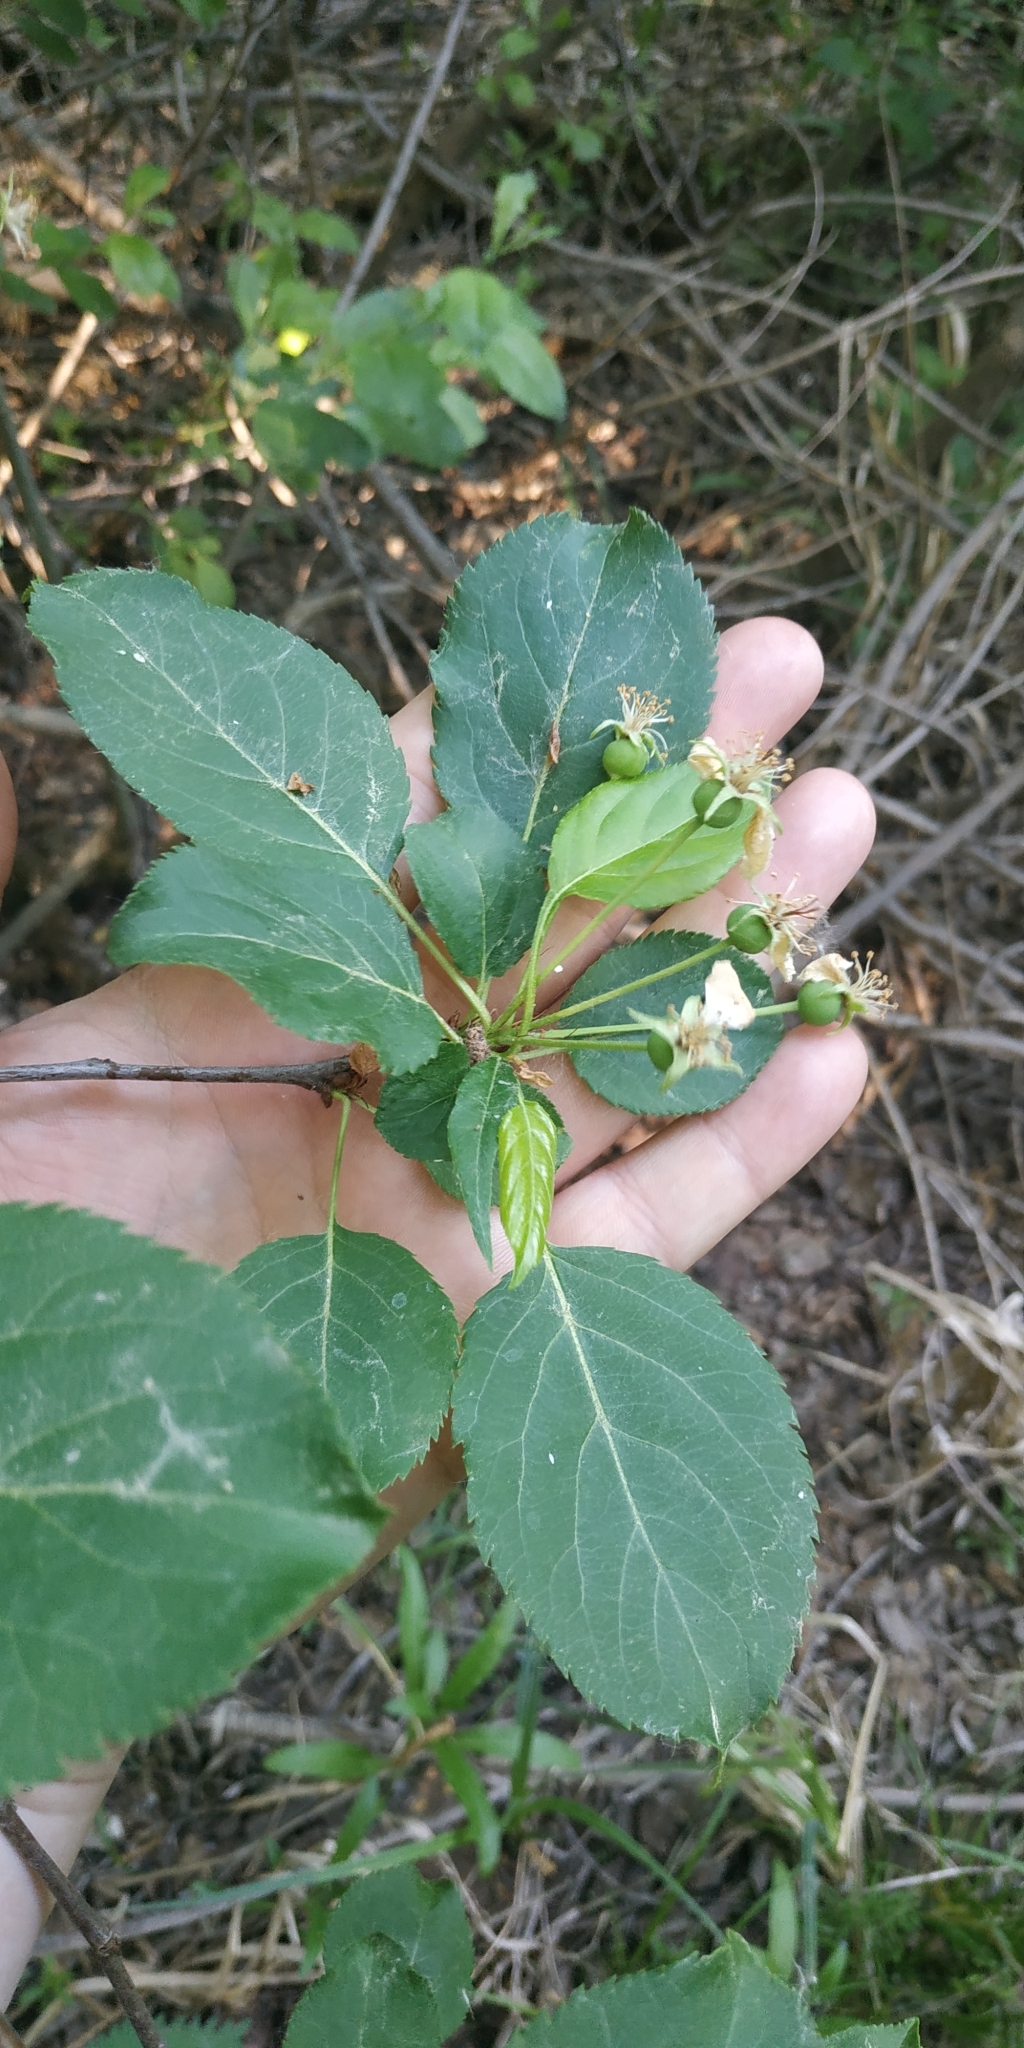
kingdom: Plantae
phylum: Tracheophyta
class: Magnoliopsida
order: Rosales
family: Rosaceae
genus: Malus
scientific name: Malus baccata
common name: Siberian crab
